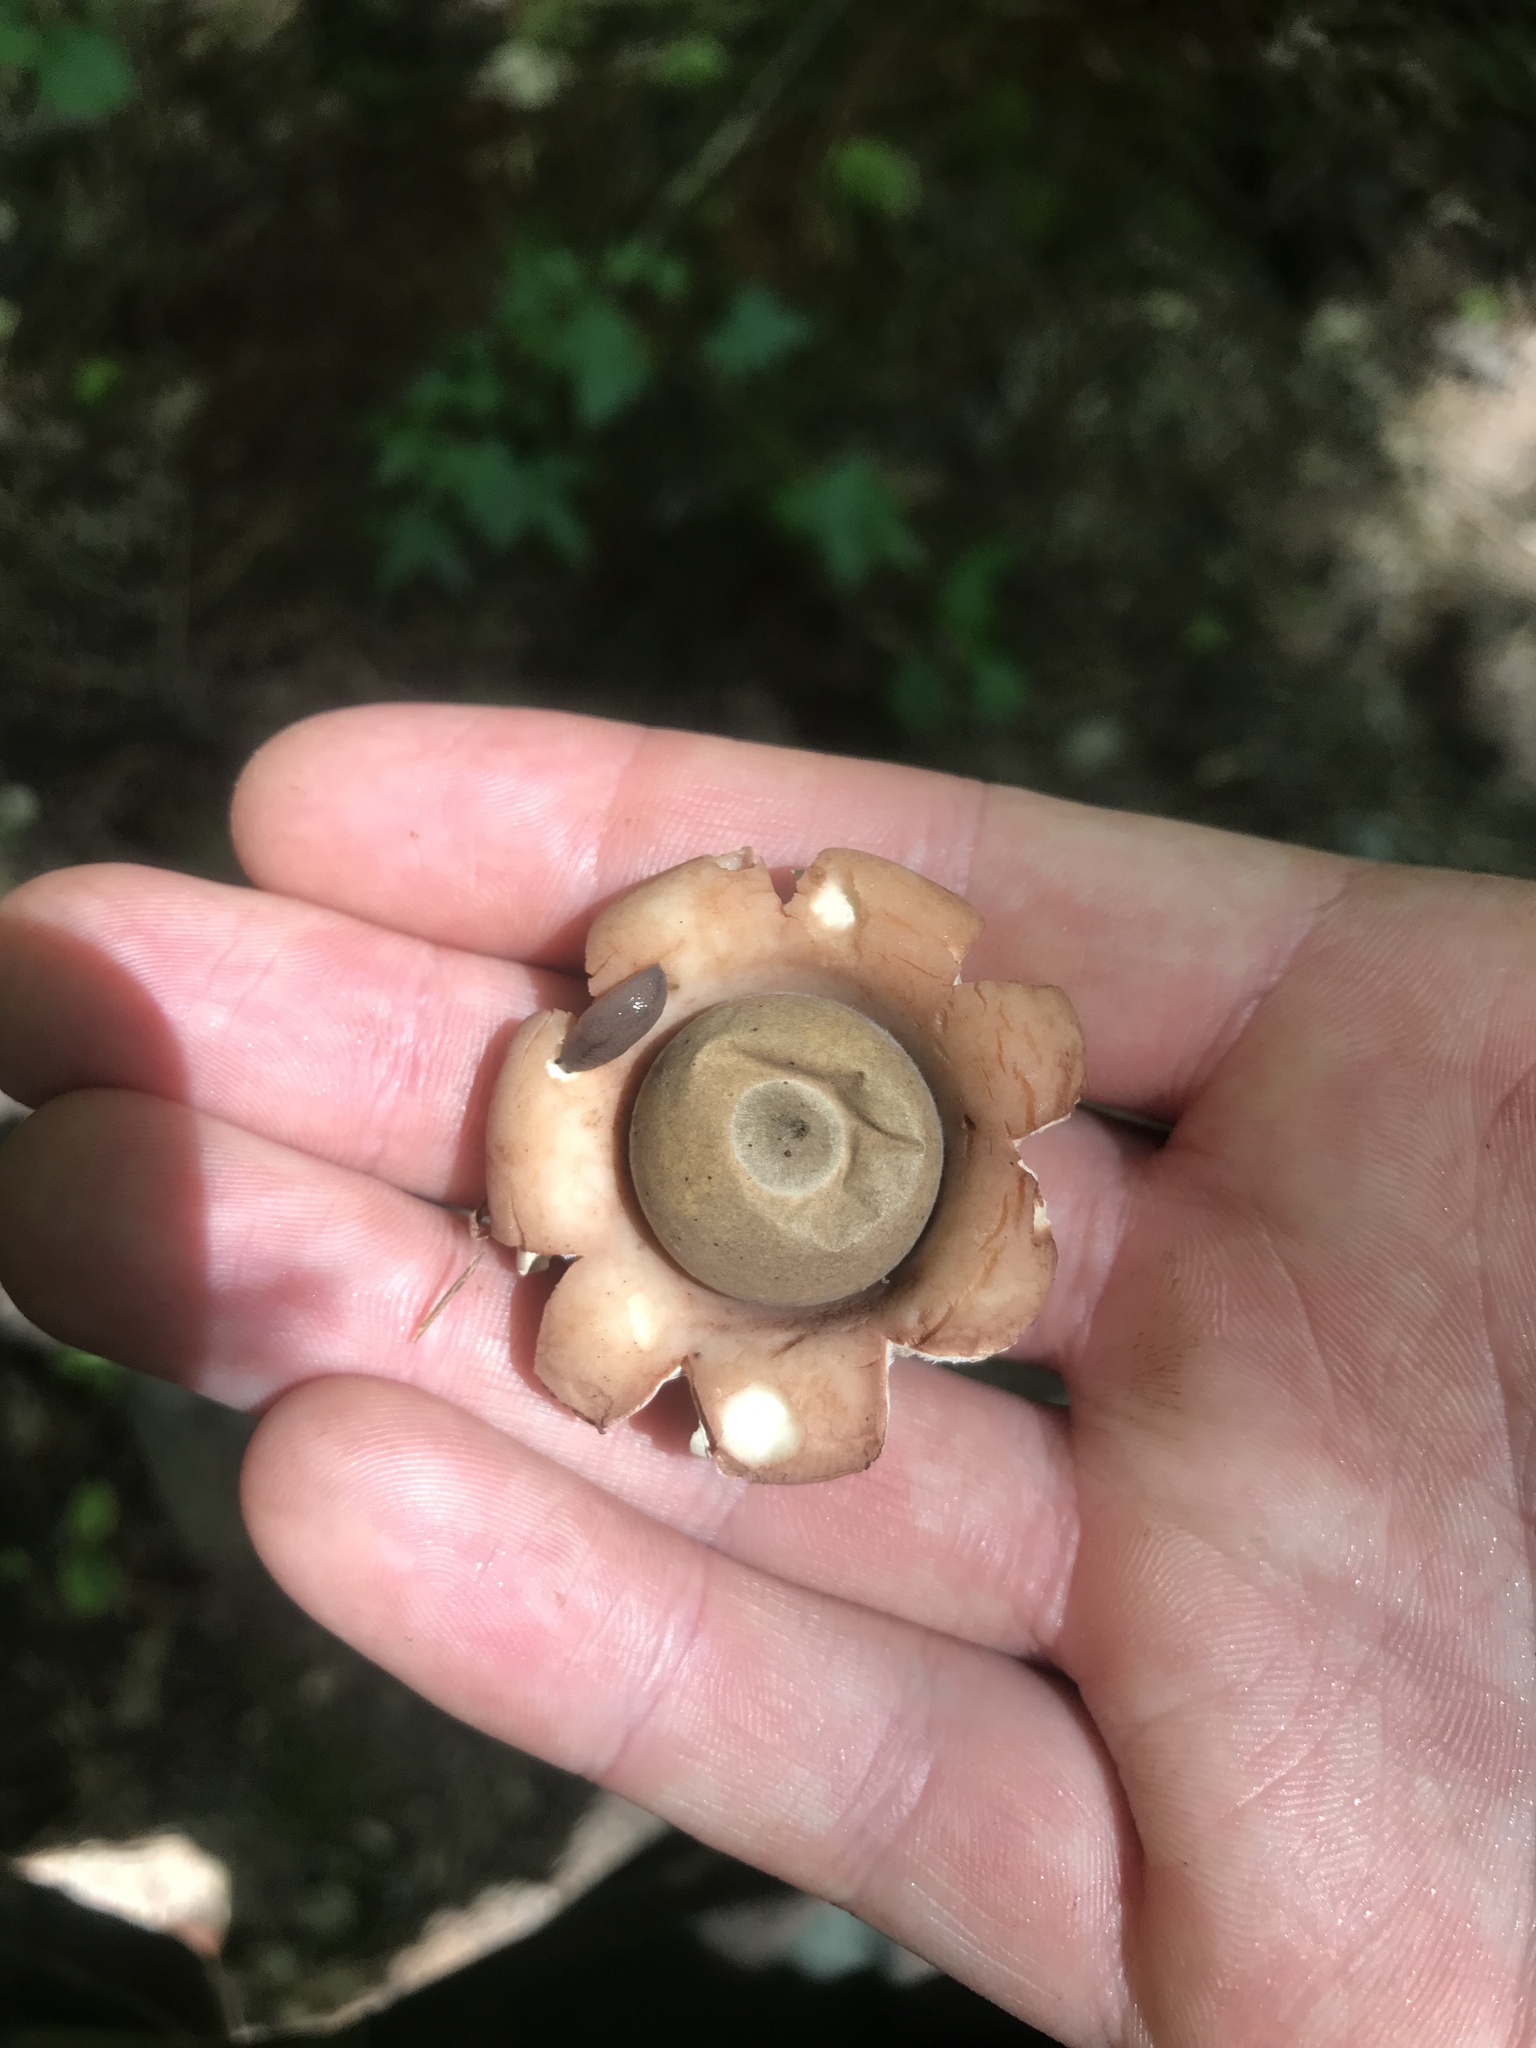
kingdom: Fungi
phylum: Basidiomycota
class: Agaricomycetes
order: Geastrales
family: Geastraceae
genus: Geastrum
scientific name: Geastrum saccatum
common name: Rounded earthstar
